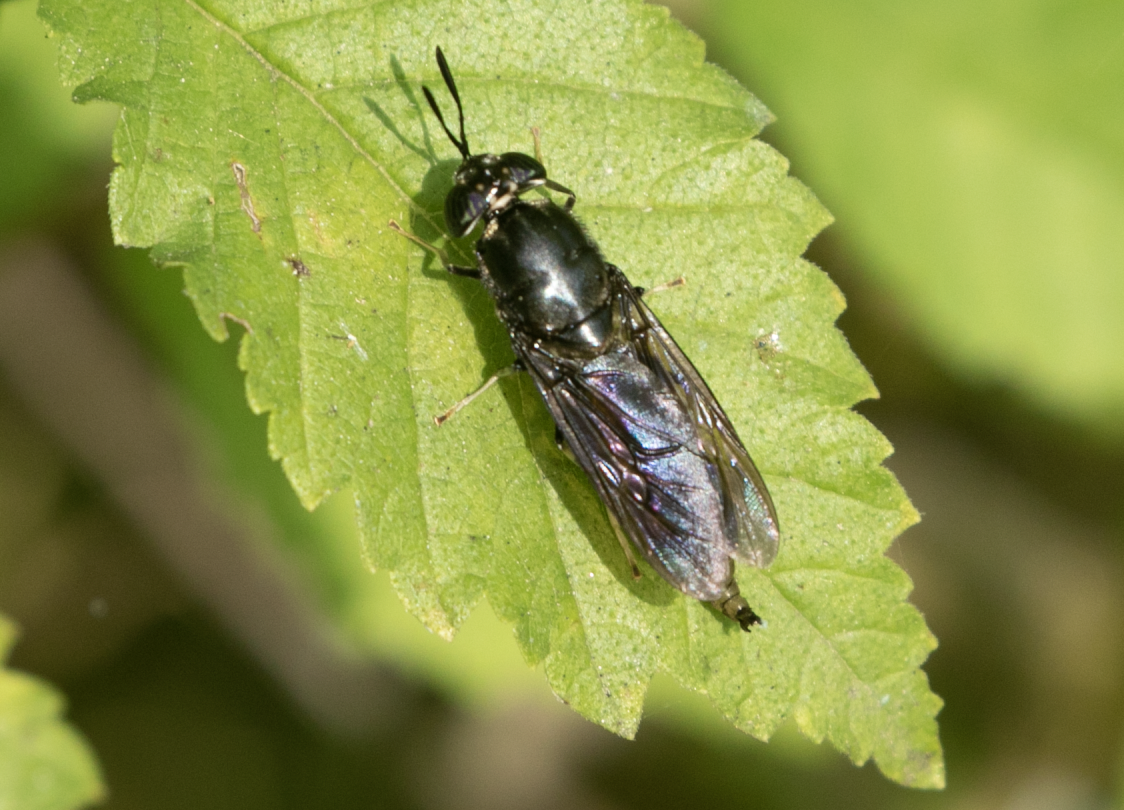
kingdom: Animalia
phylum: Arthropoda
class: Insecta
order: Diptera
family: Stratiomyidae
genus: Hermetia
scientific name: Hermetia illucens
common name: Black soldier fly
